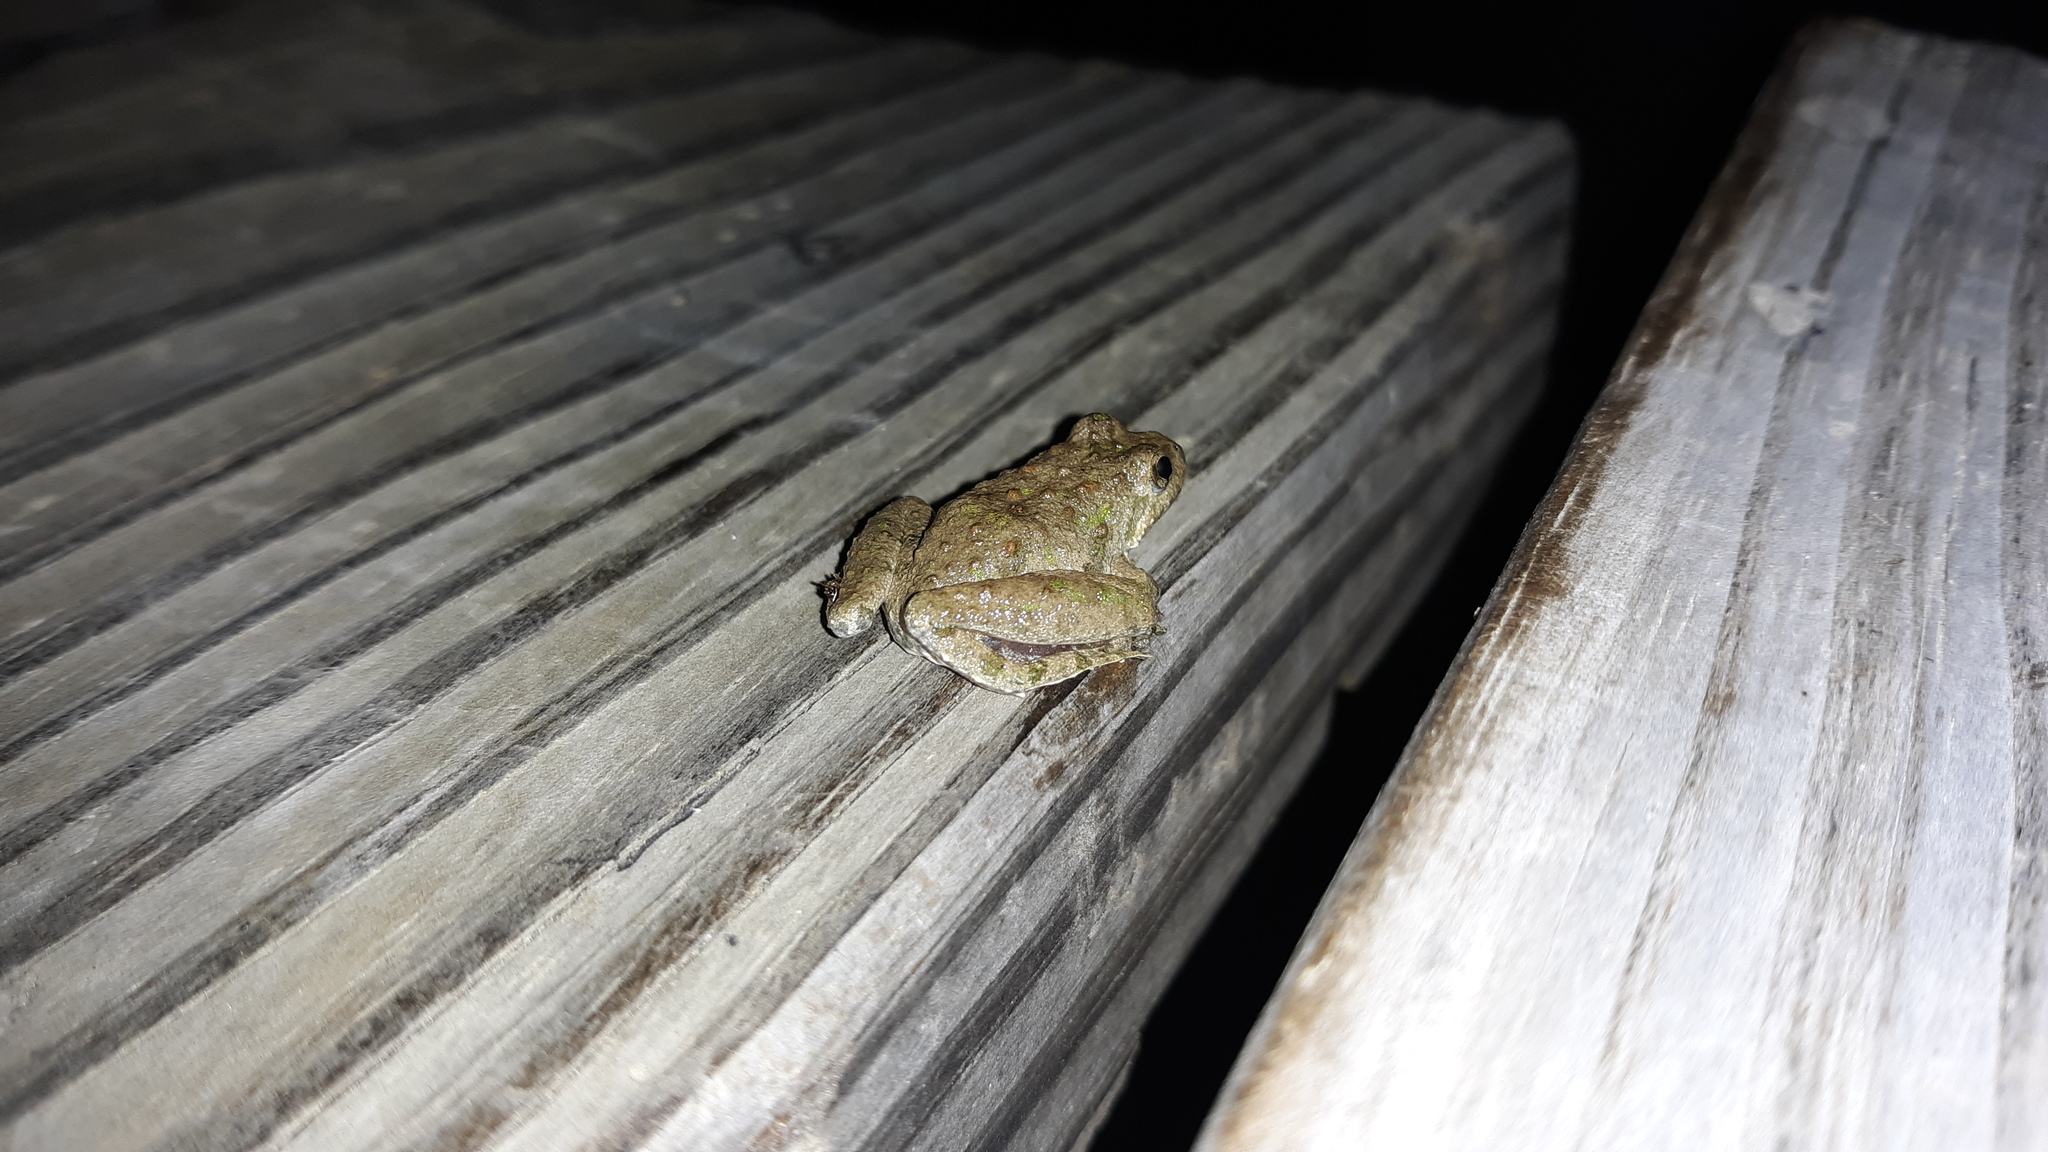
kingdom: Animalia
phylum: Chordata
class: Amphibia
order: Anura
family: Hylidae
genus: Acris
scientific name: Acris blanchardi
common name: Blanchard's cricket frog
